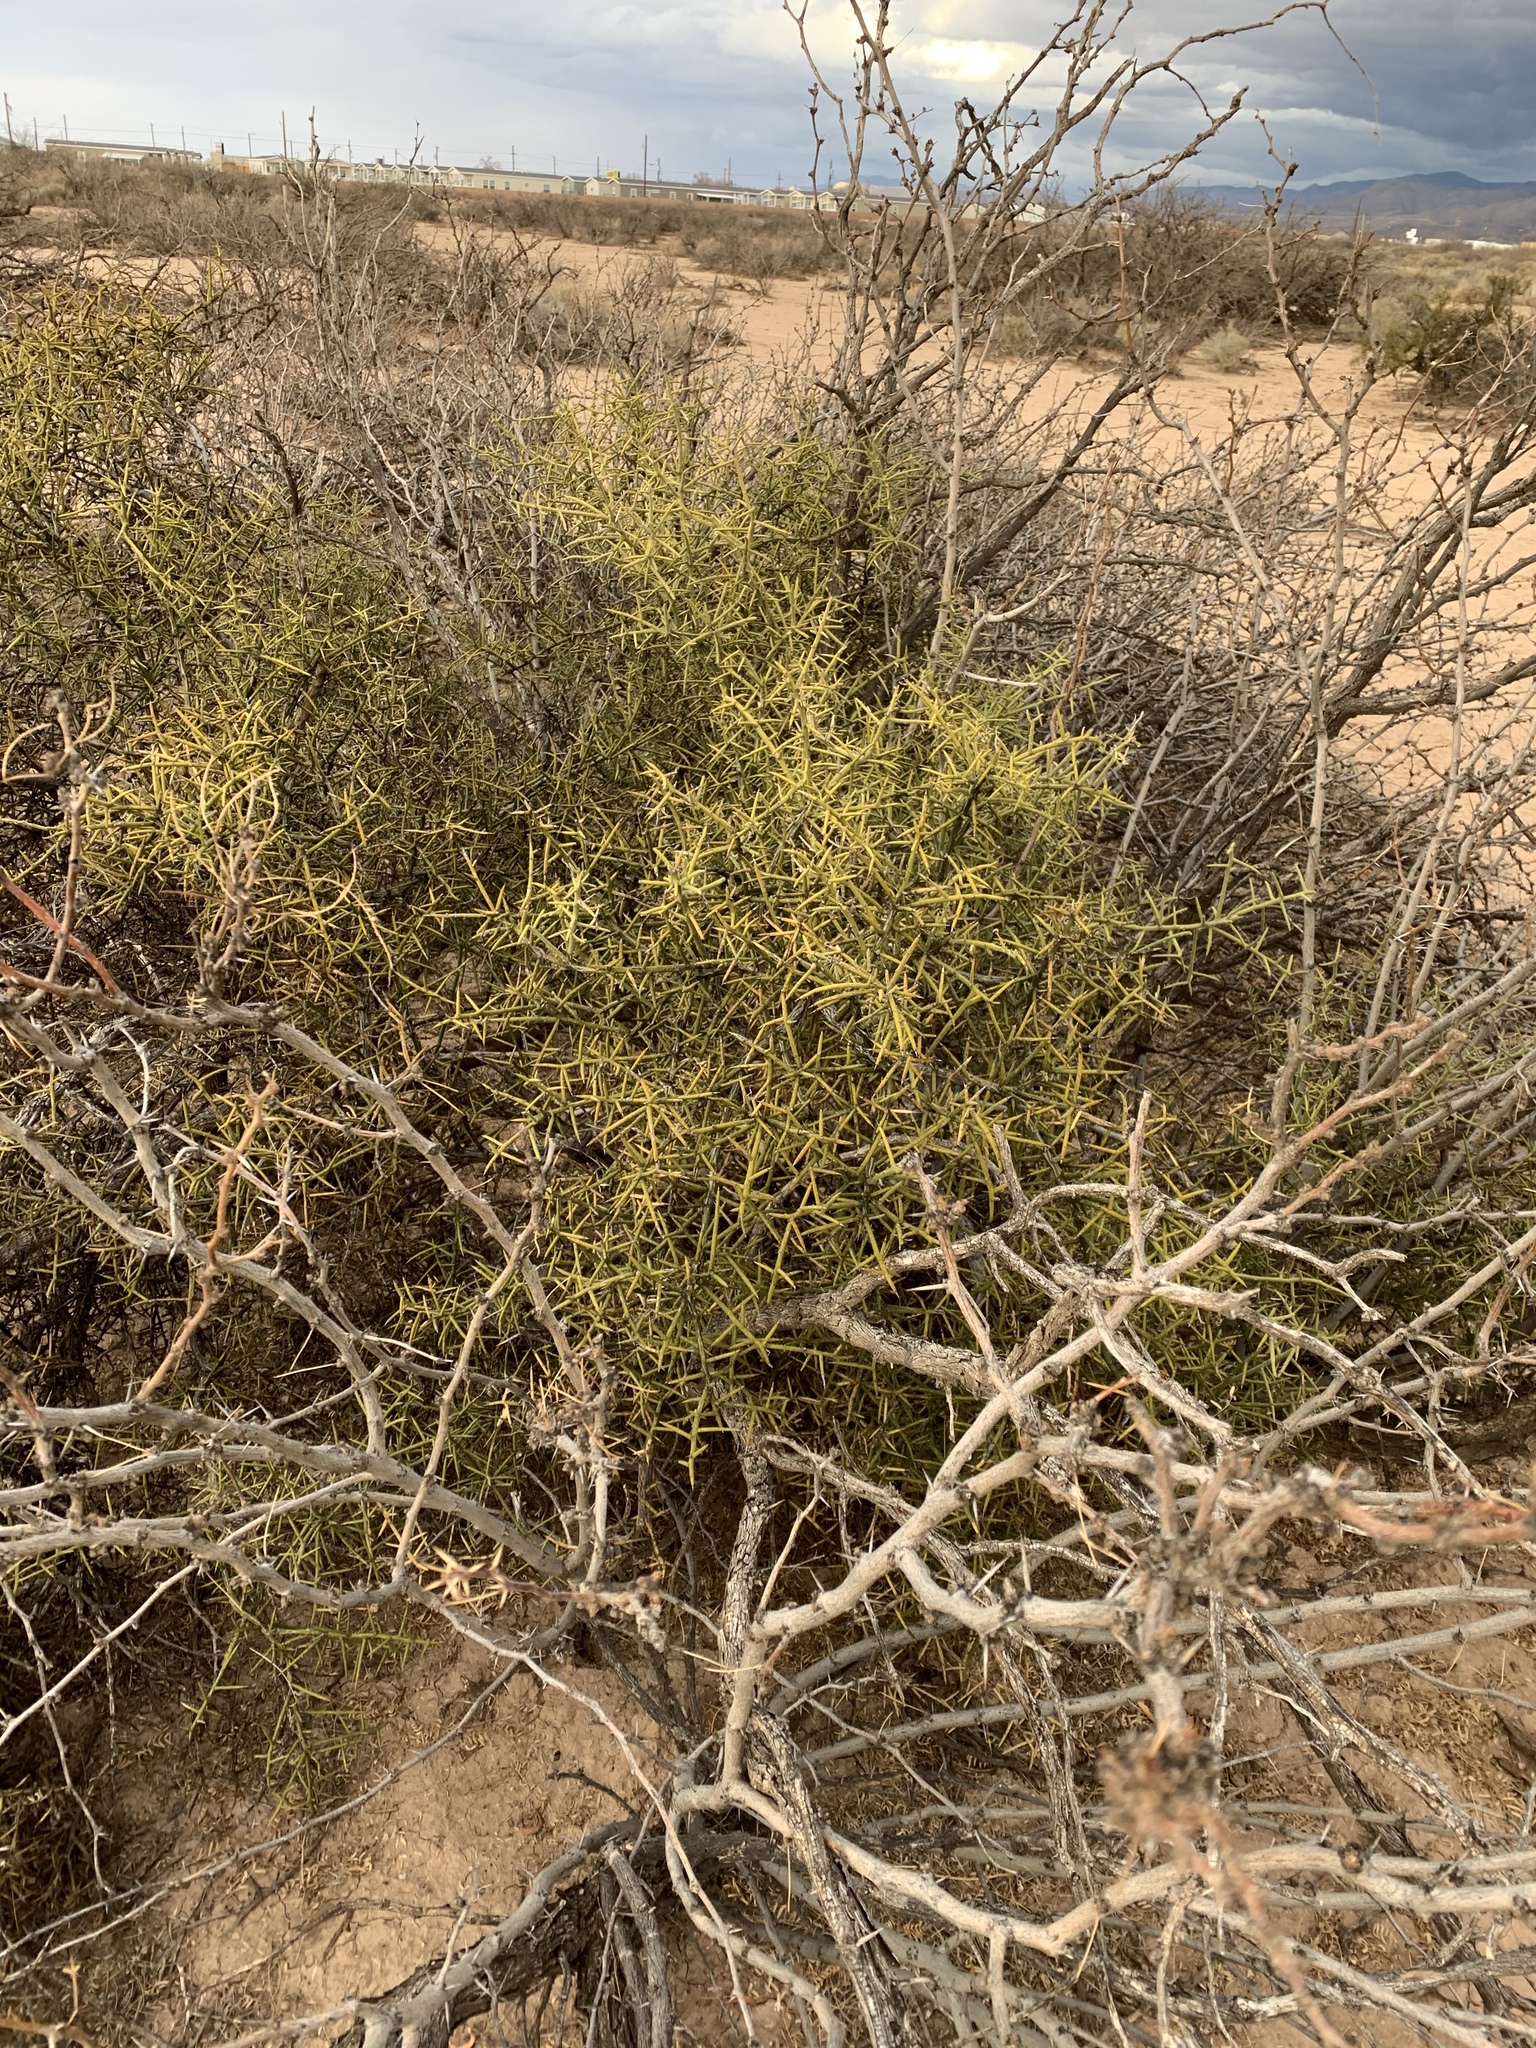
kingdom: Plantae
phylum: Tracheophyta
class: Magnoliopsida
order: Brassicales
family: Koeberliniaceae
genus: Koeberlinia
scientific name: Koeberlinia spinosa
